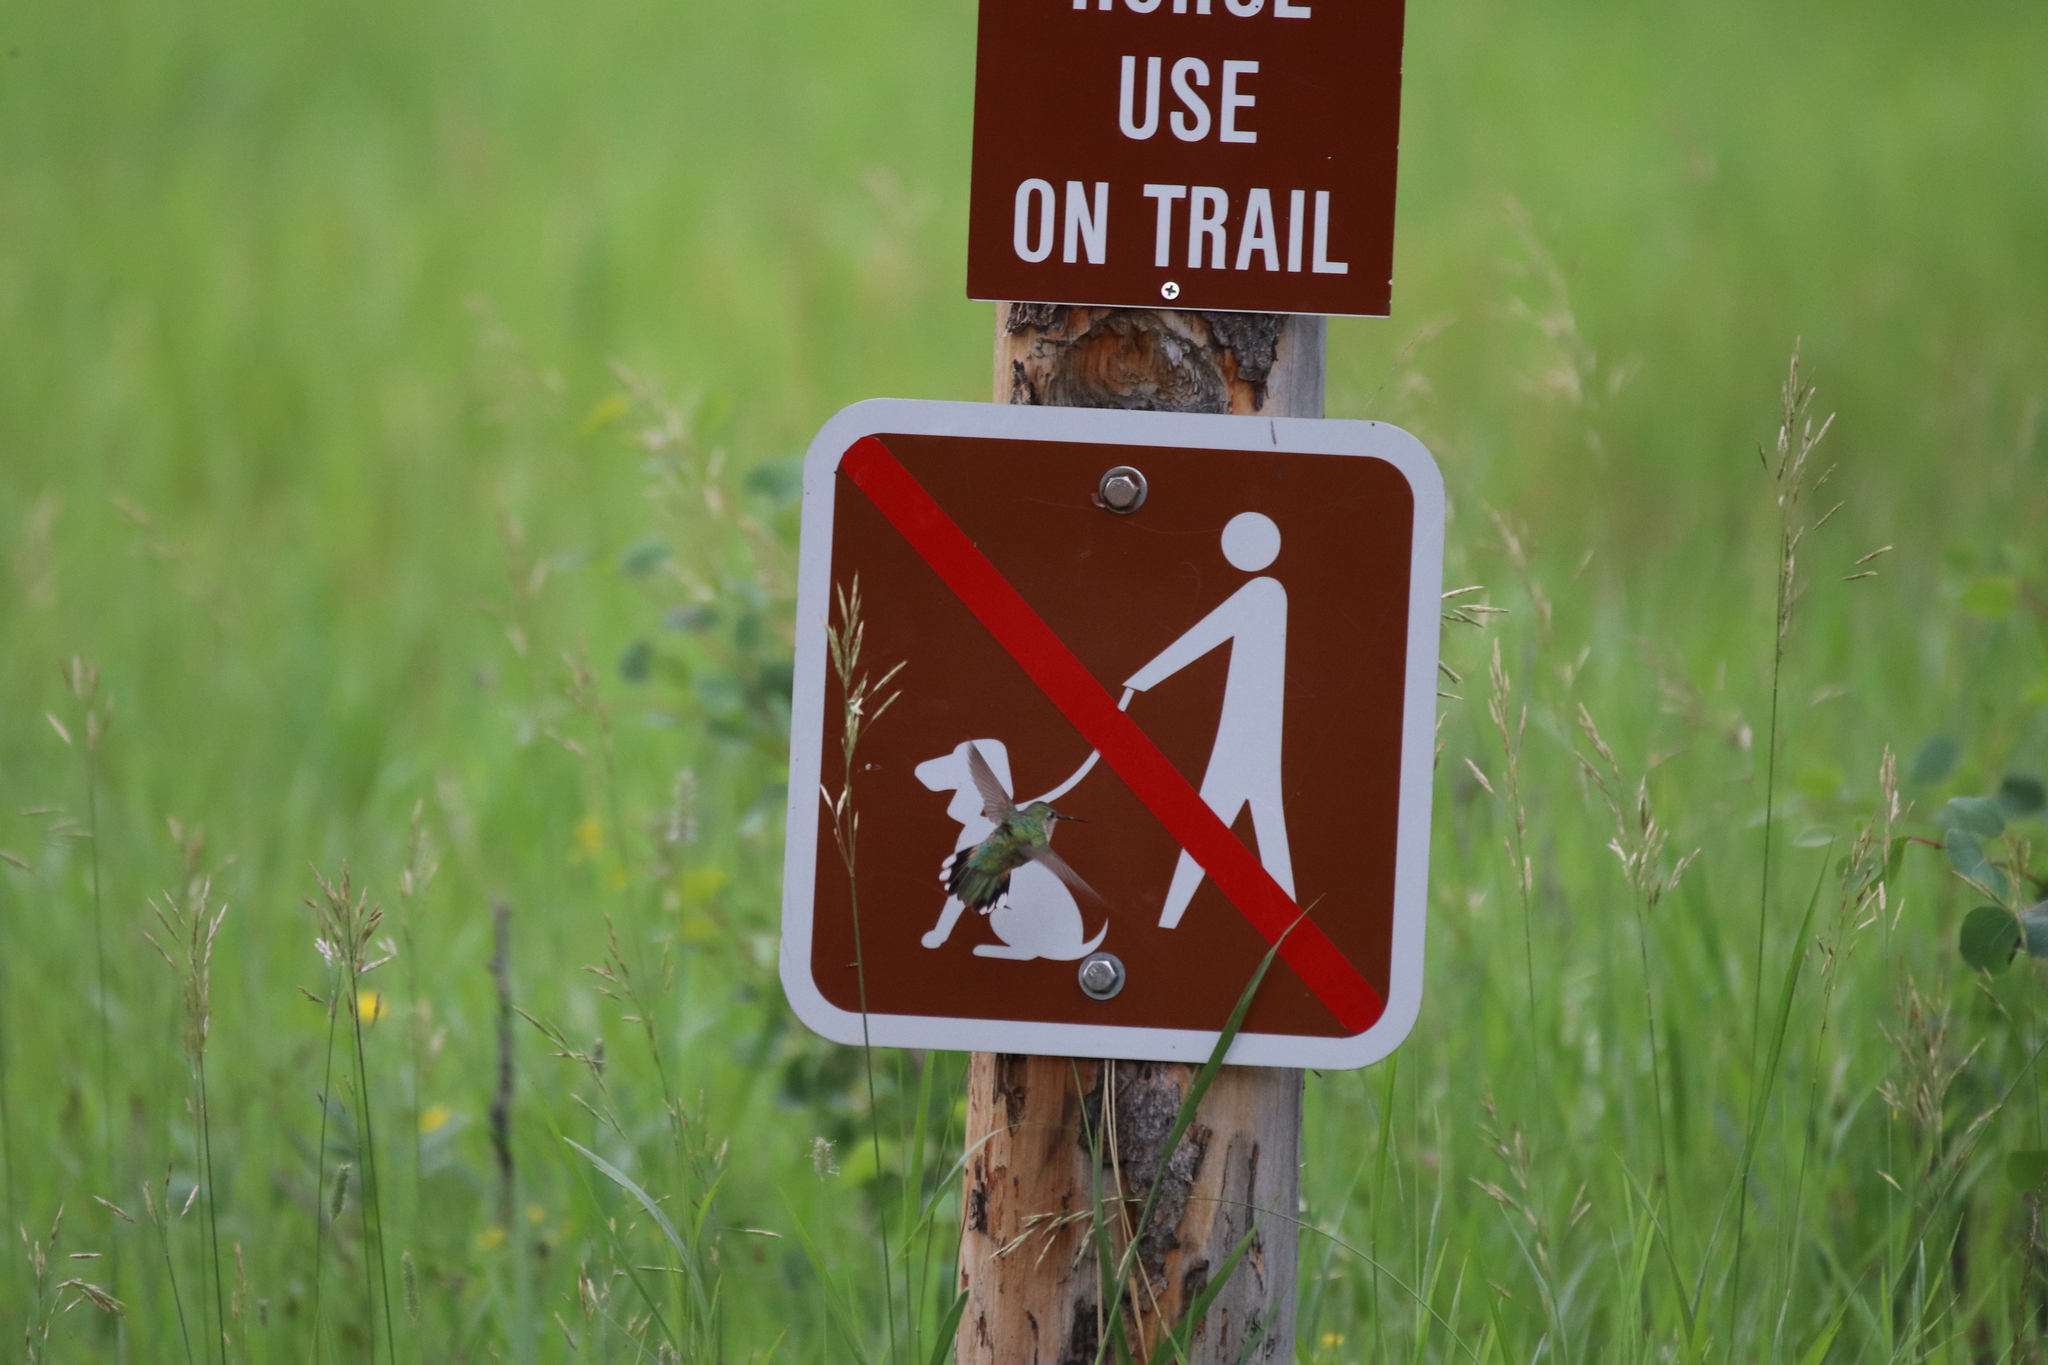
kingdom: Animalia
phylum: Chordata
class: Aves
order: Apodiformes
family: Trochilidae
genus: Selasphorus
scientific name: Selasphorus platycercus
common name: Broad-tailed hummingbird
